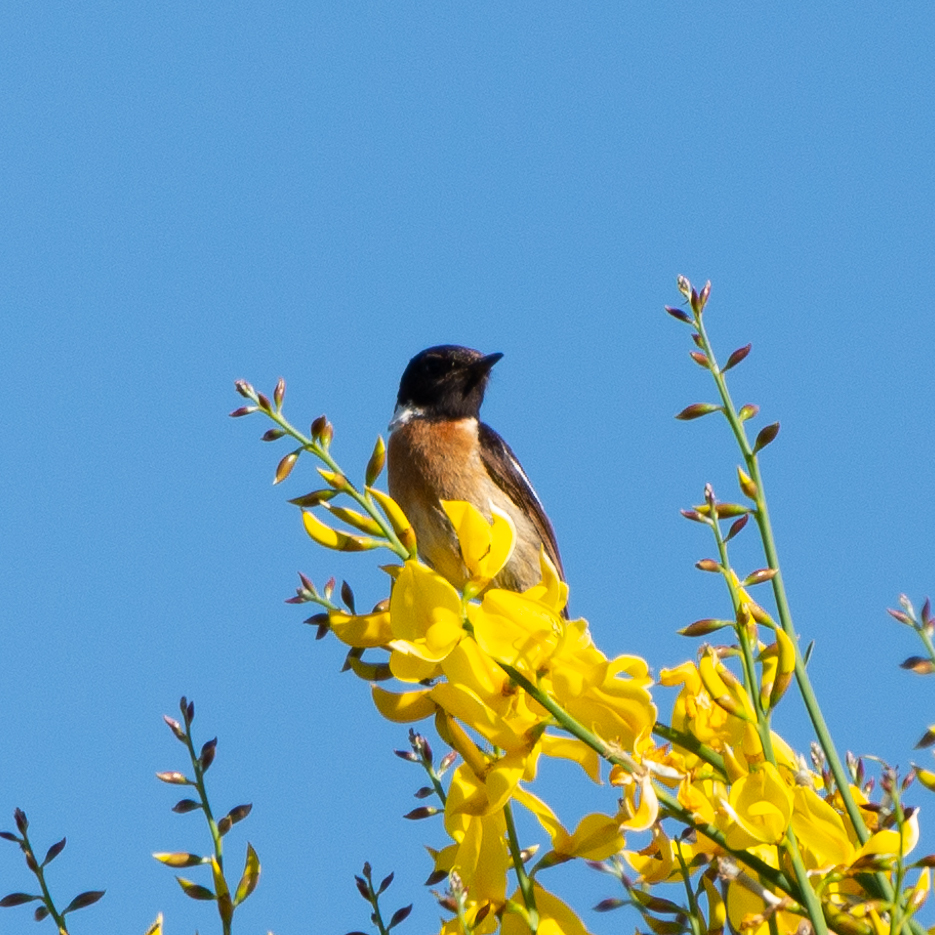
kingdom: Animalia
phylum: Chordata
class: Aves
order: Passeriformes
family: Muscicapidae
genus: Saxicola
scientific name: Saxicola rubicola
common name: European stonechat
